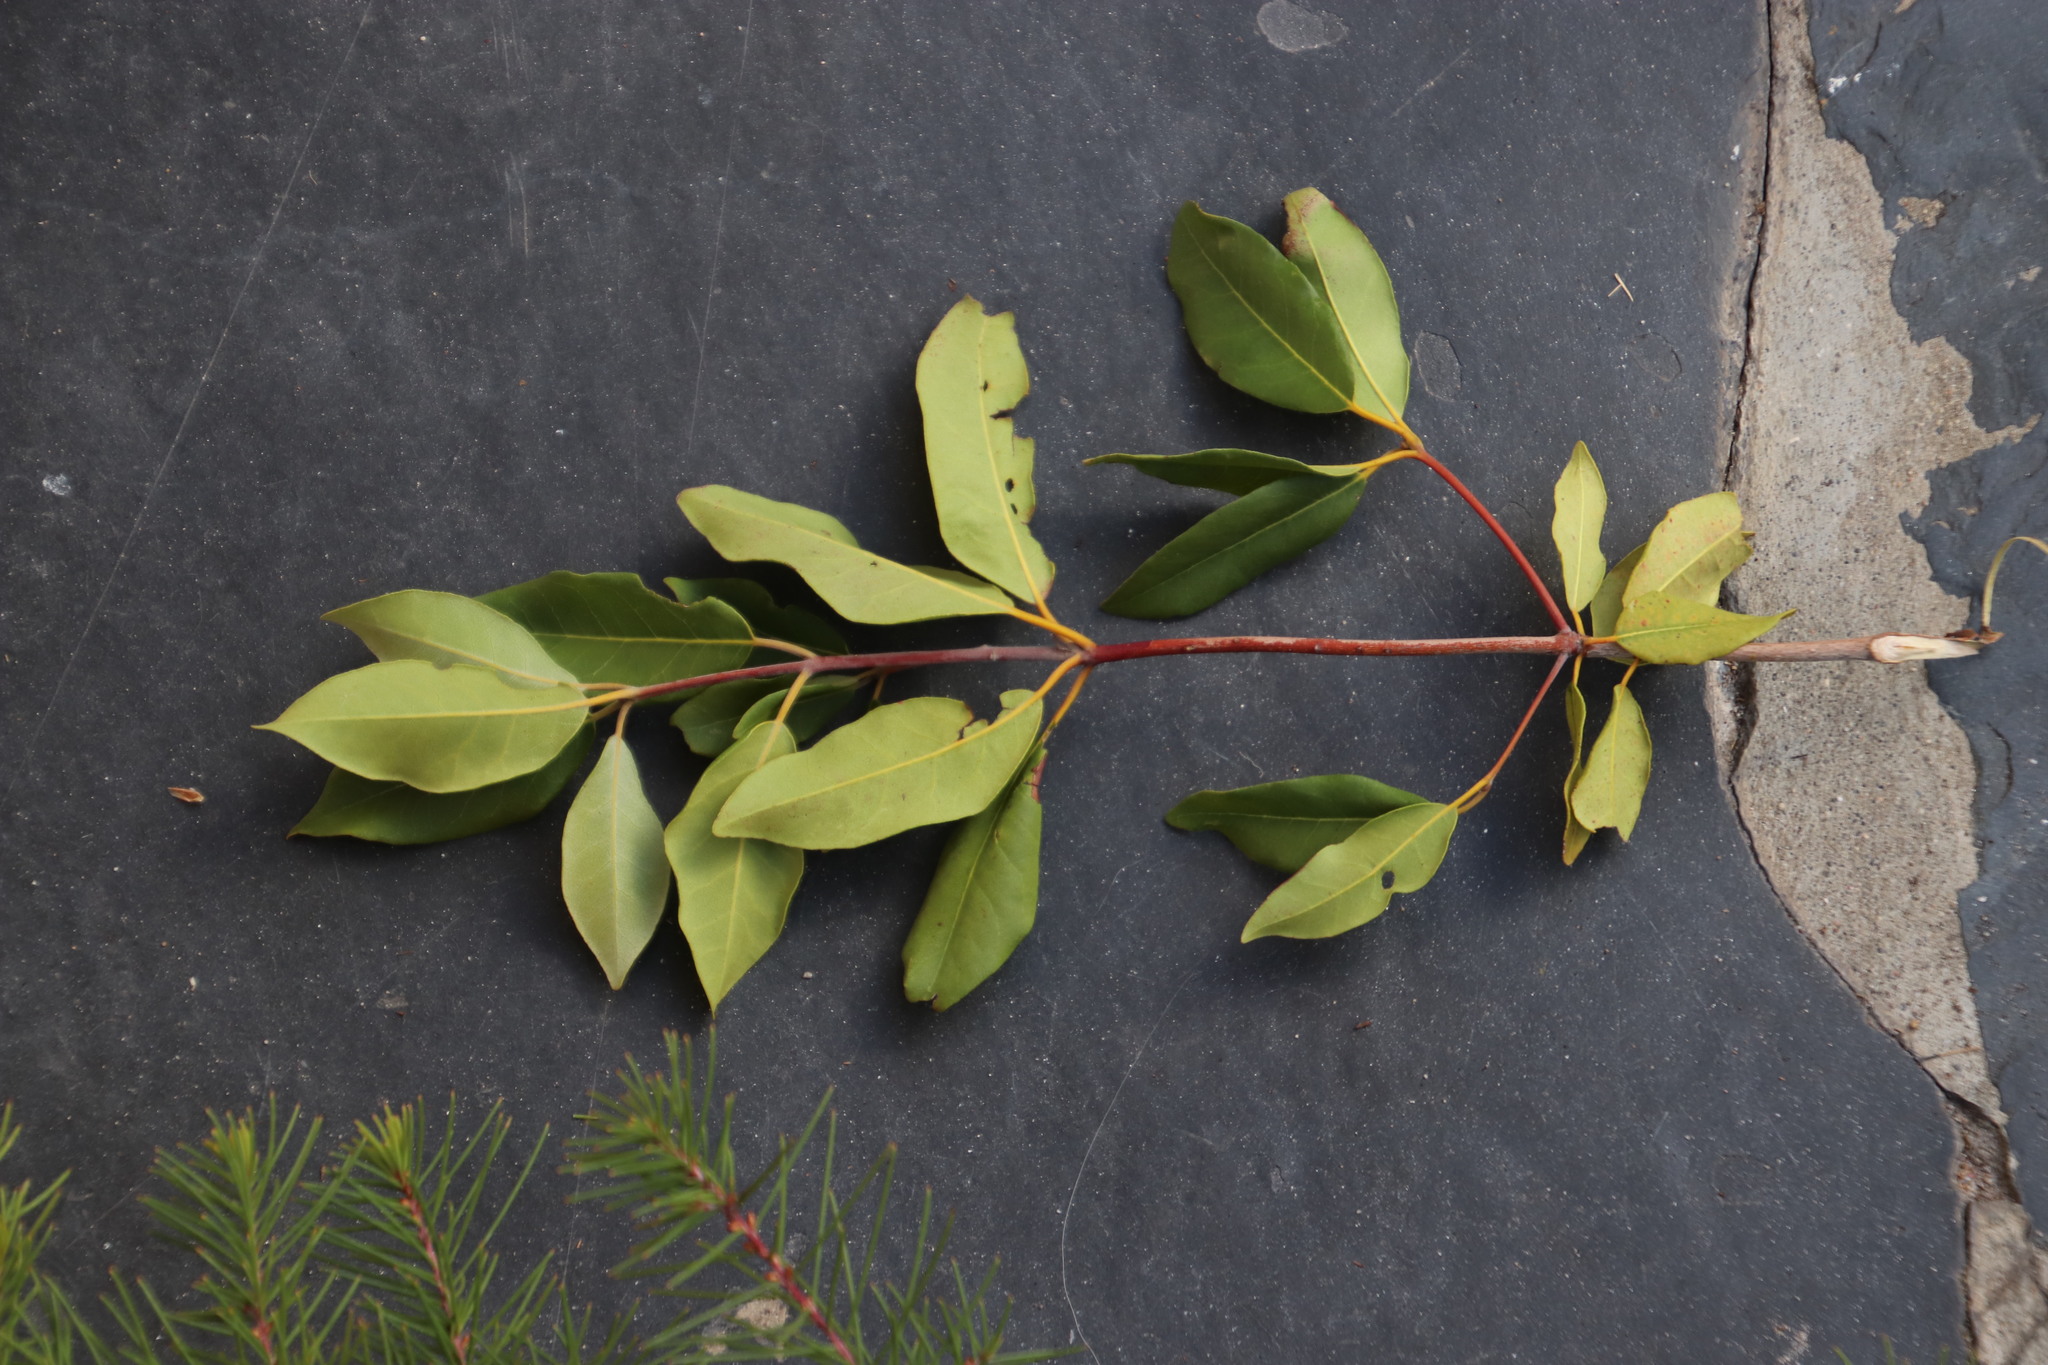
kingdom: Plantae
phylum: Tracheophyta
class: Magnoliopsida
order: Myrtales
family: Myrtaceae
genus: Syncarpia
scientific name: Syncarpia glomulifera
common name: Turpentine tree
